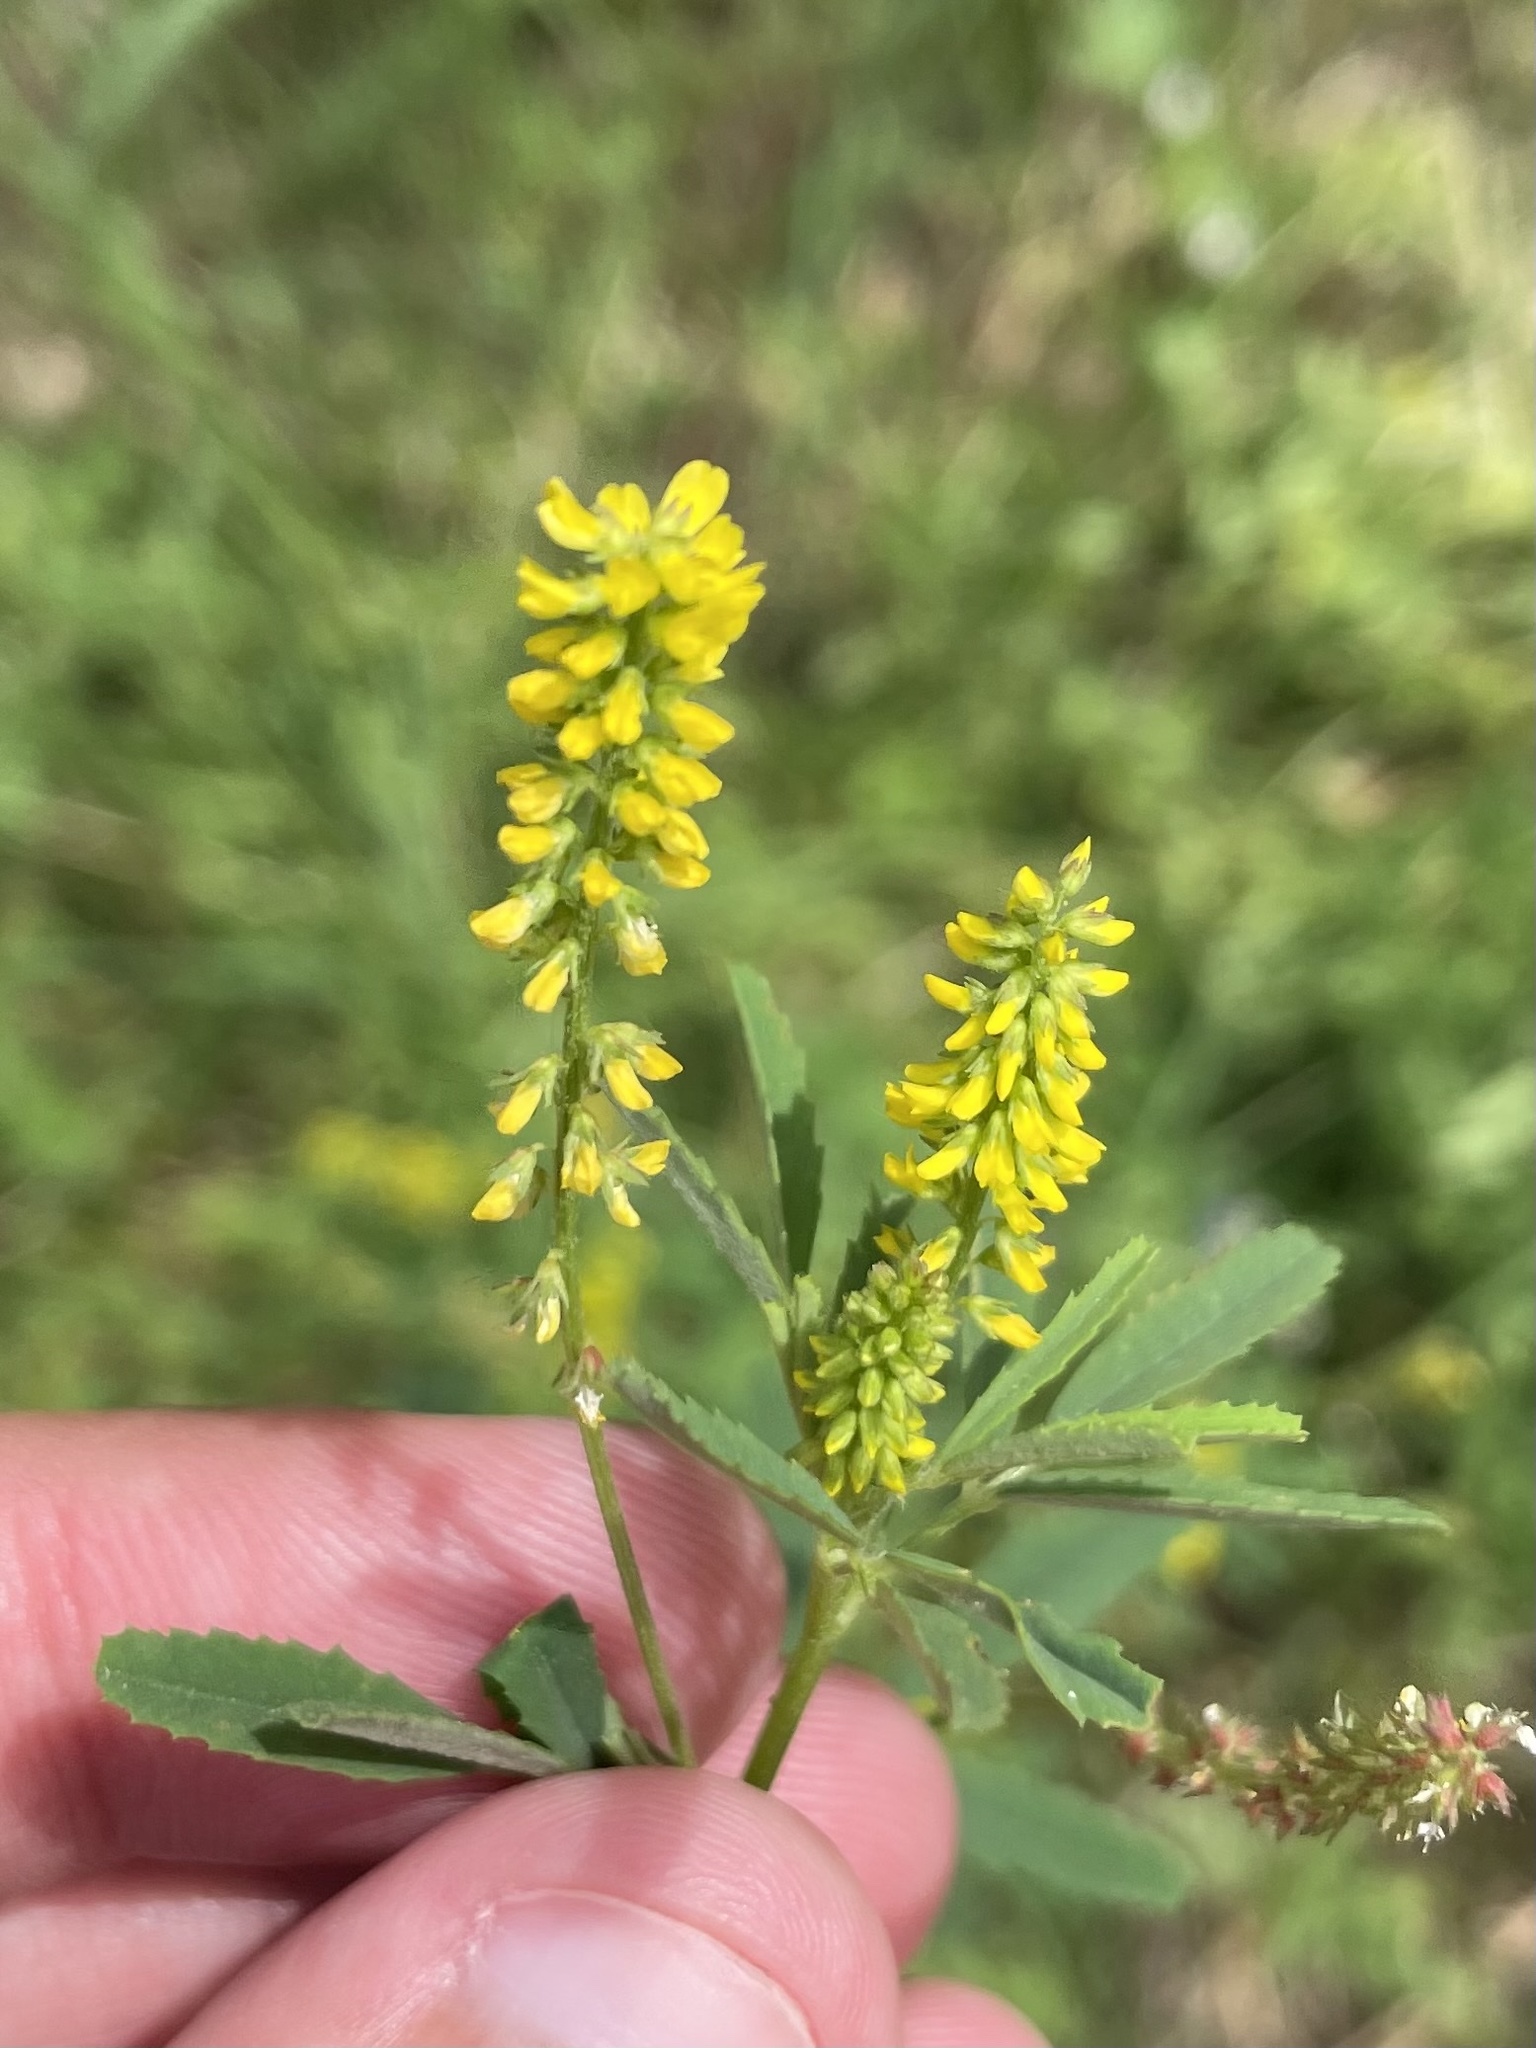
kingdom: Plantae
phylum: Tracheophyta
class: Magnoliopsida
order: Fabales
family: Fabaceae
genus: Melilotus
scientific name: Melilotus indicus
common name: Small melilot
